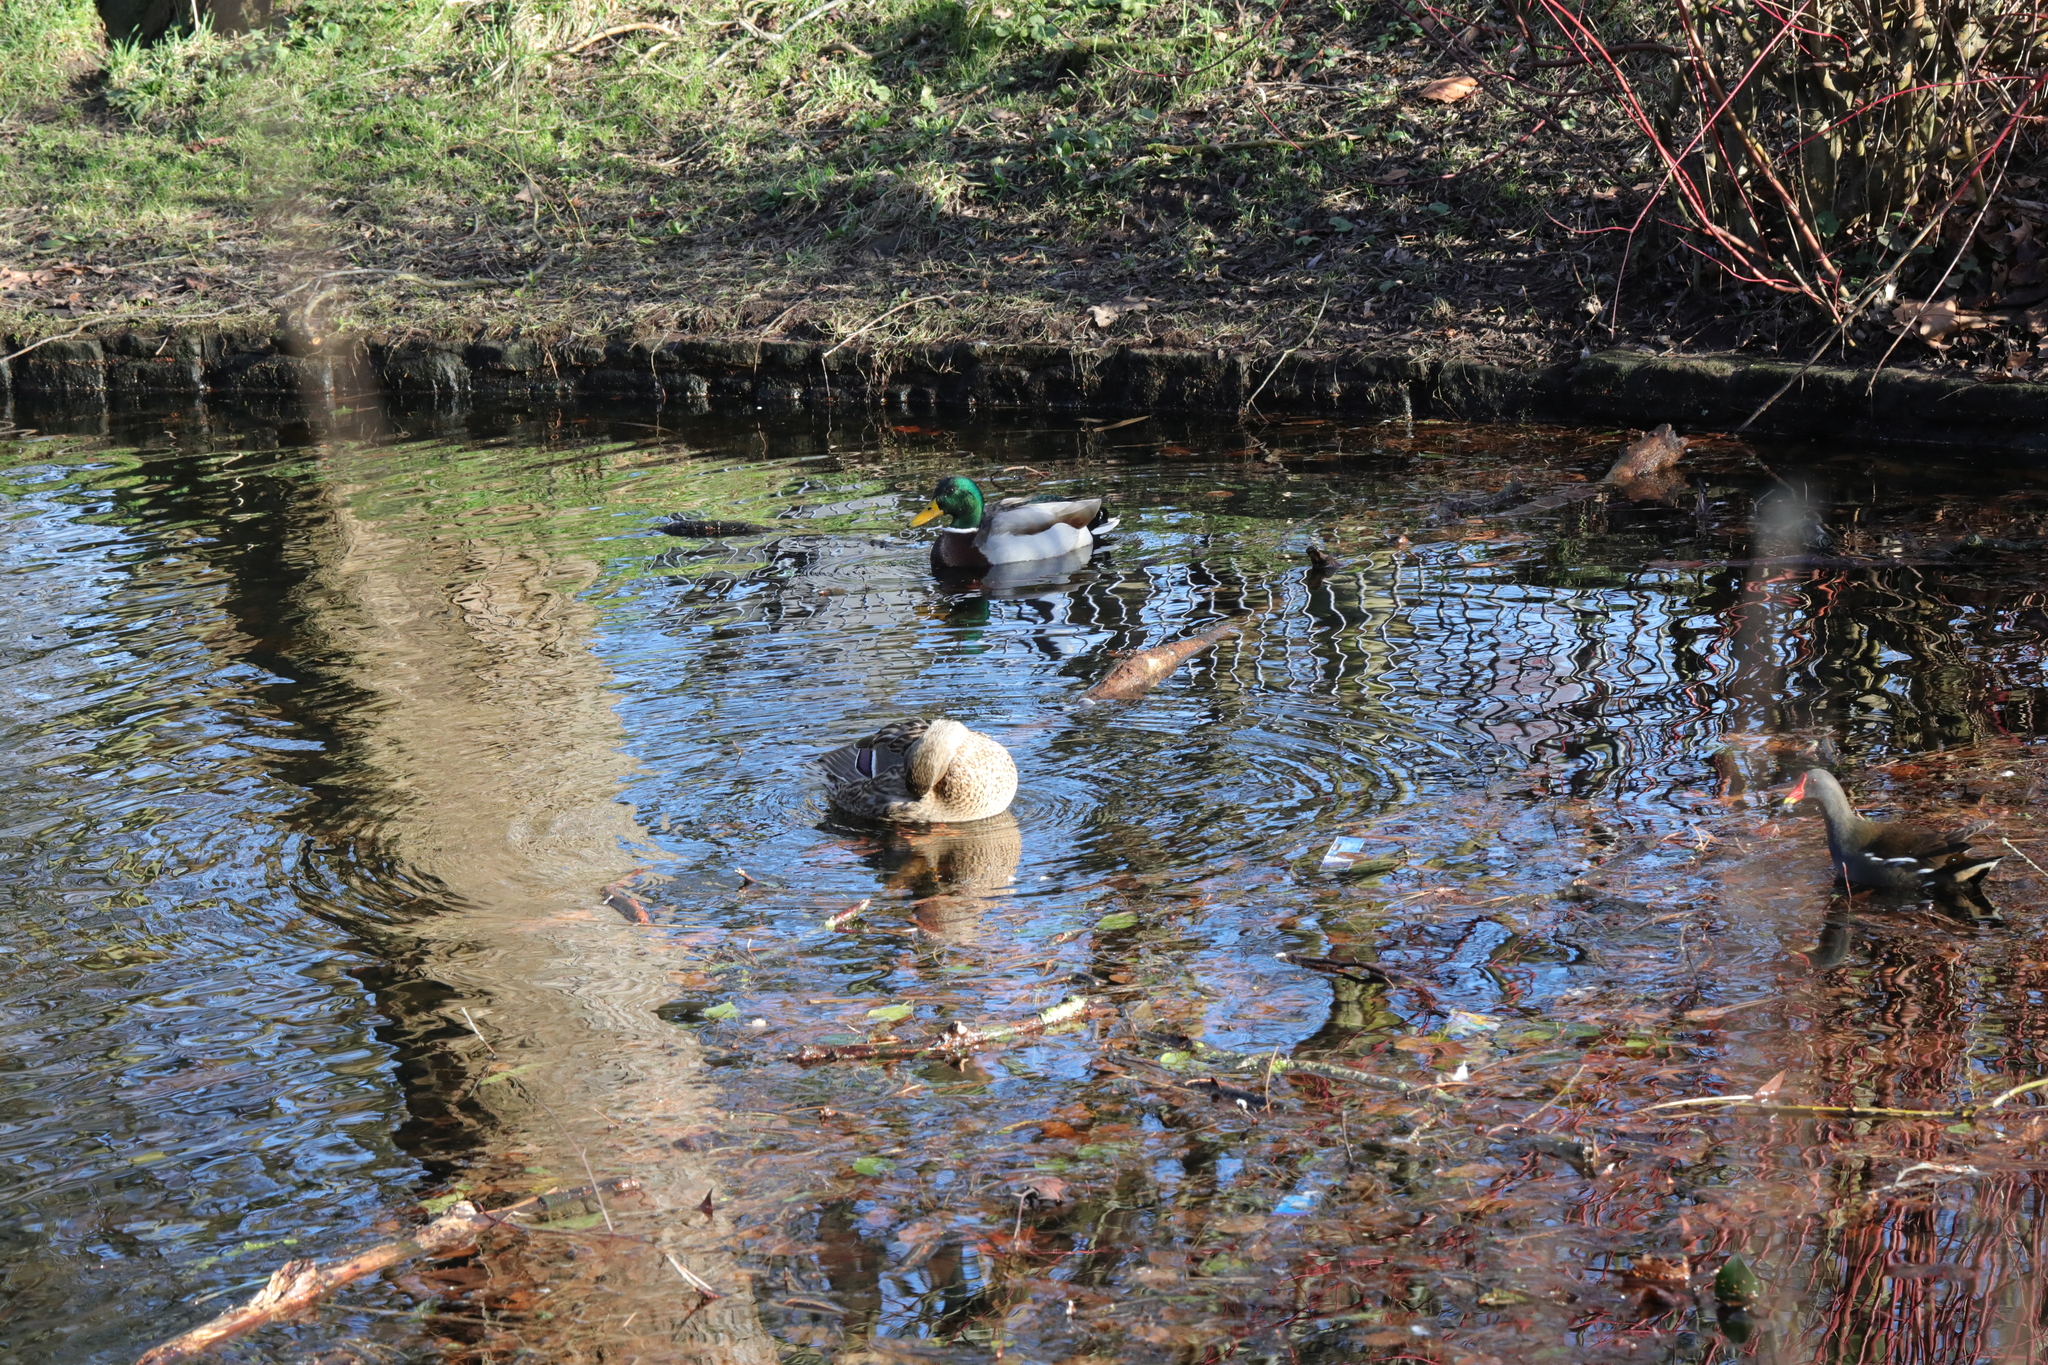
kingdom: Animalia
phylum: Chordata
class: Aves
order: Anseriformes
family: Anatidae
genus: Anas
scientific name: Anas platyrhynchos
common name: Mallard
